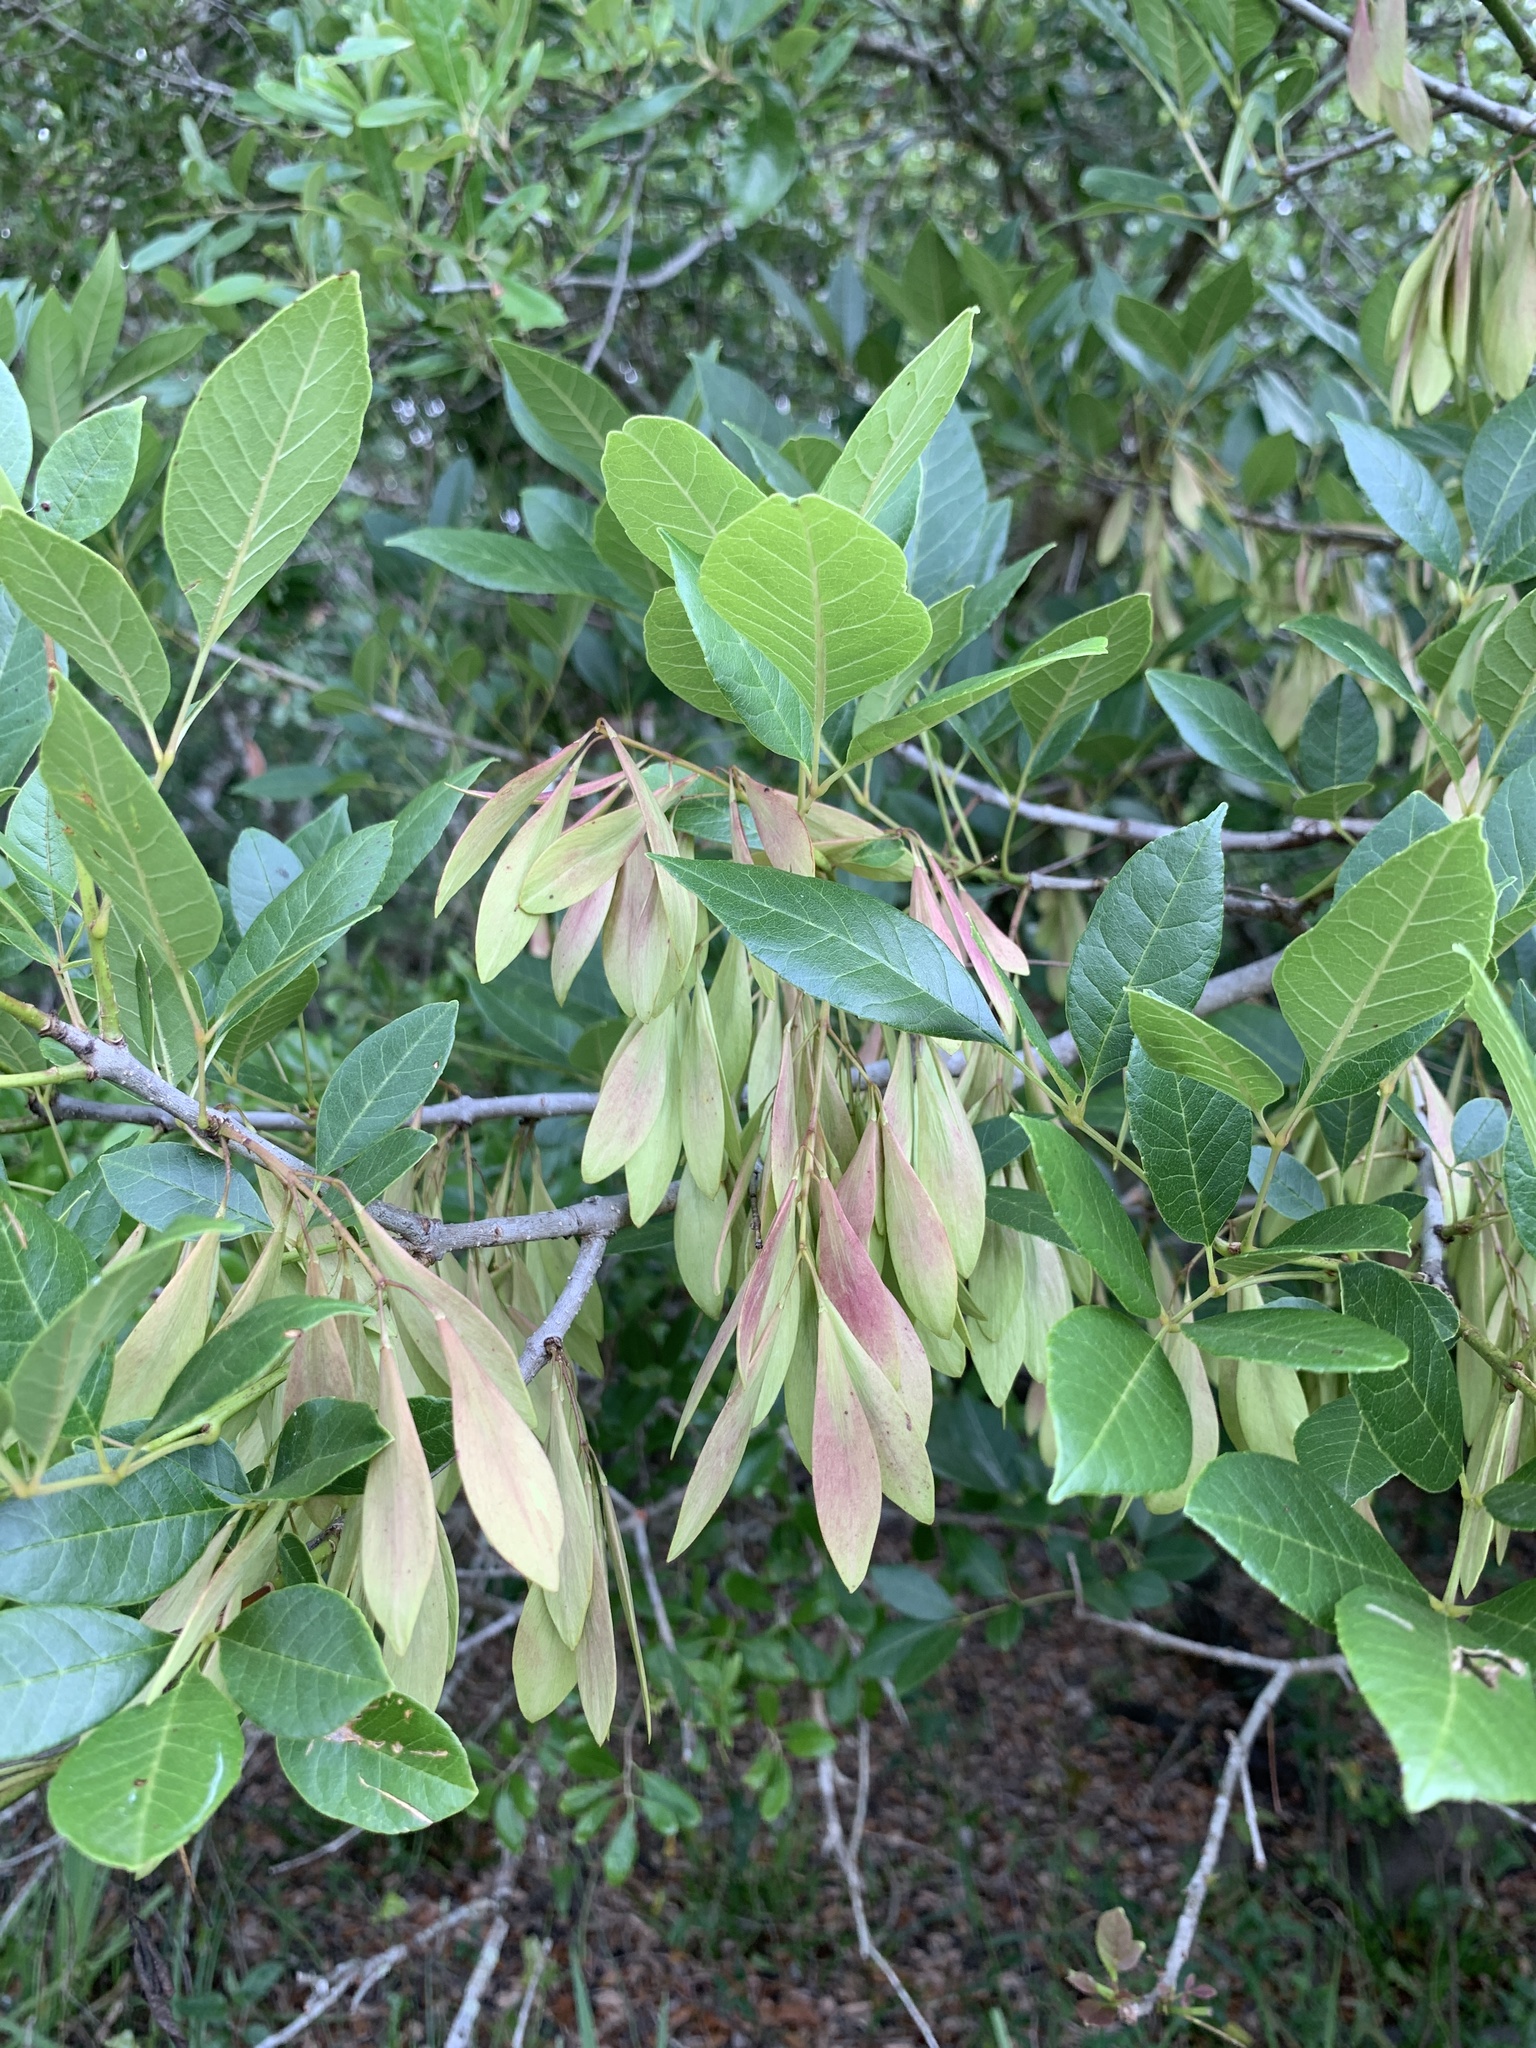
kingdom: Plantae
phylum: Tracheophyta
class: Magnoliopsida
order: Lamiales
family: Oleaceae
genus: Fraxinus
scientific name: Fraxinus caroliniana
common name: Carolina ash
